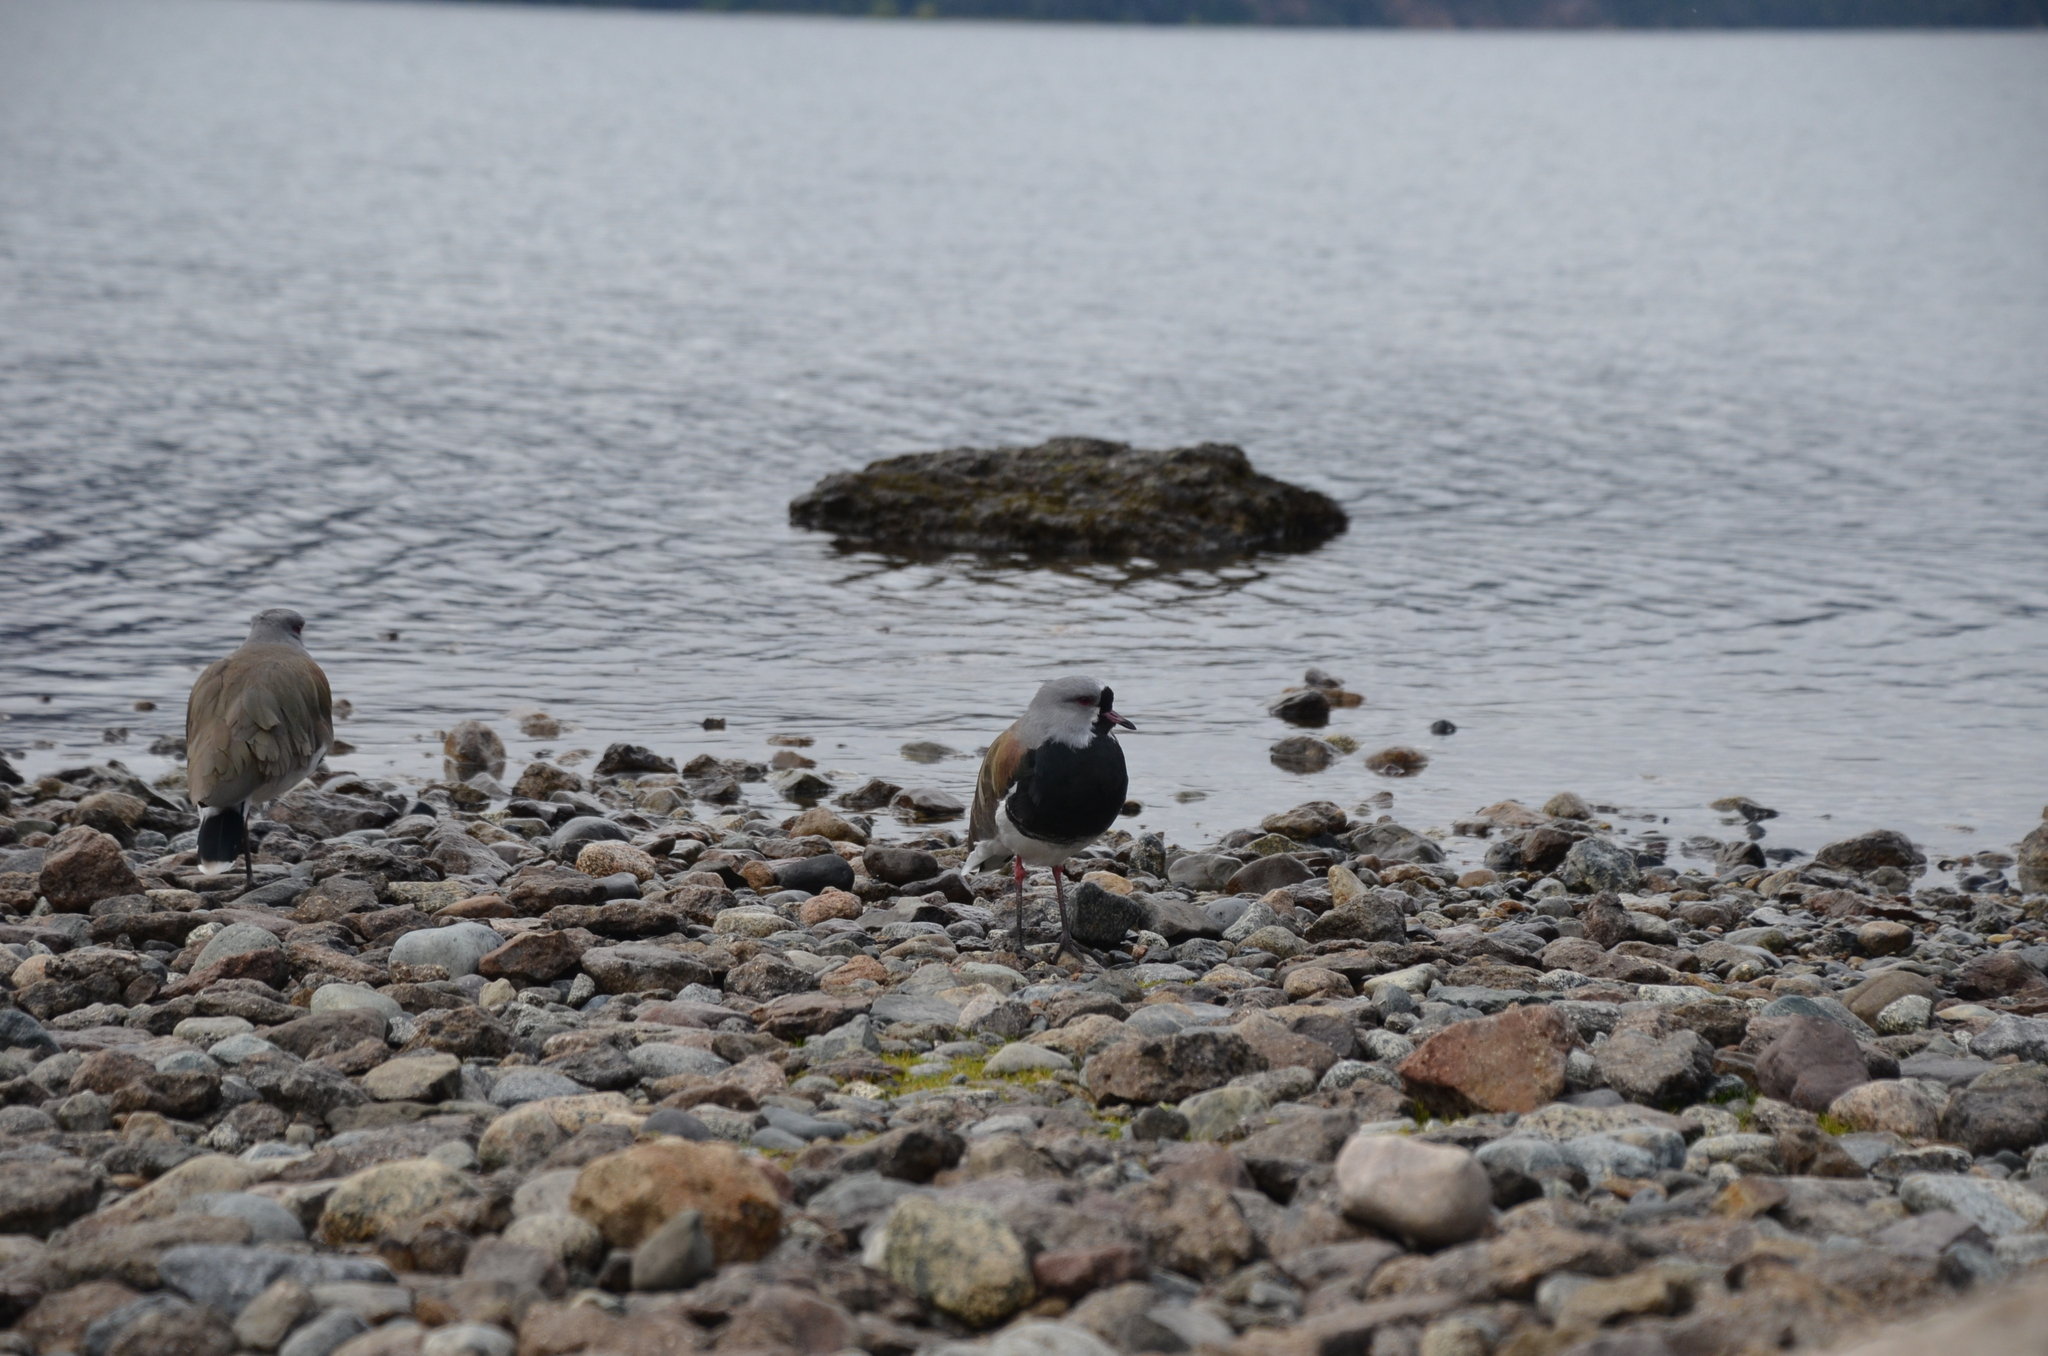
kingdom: Animalia
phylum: Chordata
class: Aves
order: Charadriiformes
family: Charadriidae
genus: Vanellus
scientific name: Vanellus chilensis
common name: Southern lapwing
